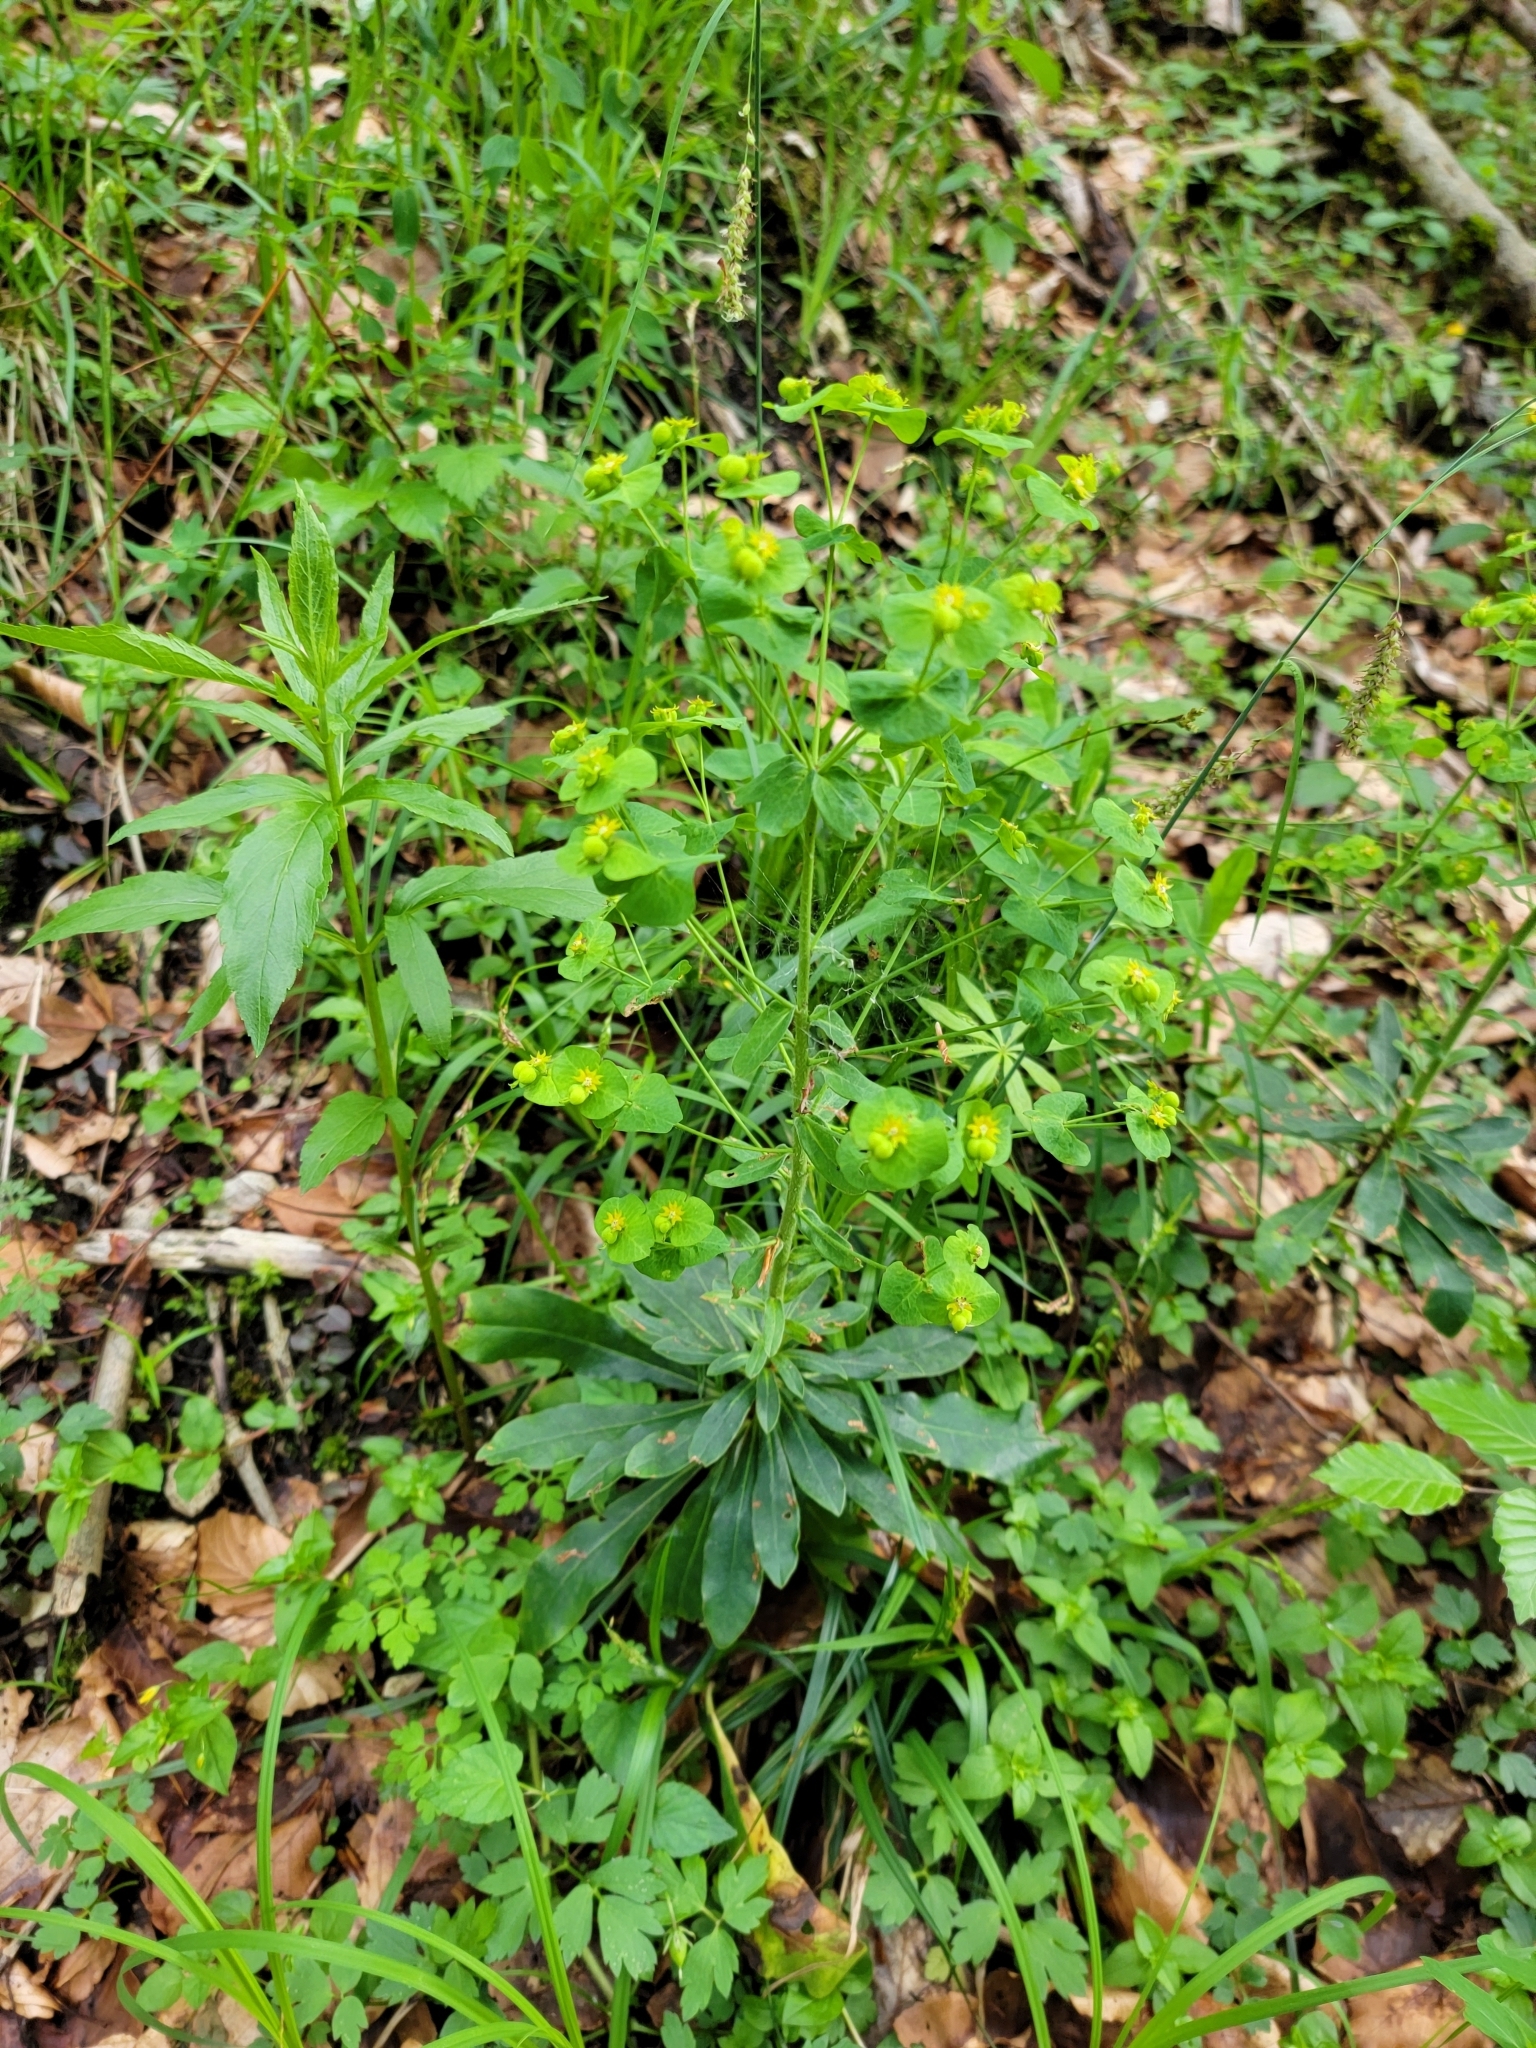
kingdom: Plantae
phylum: Tracheophyta
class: Magnoliopsida
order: Malpighiales
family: Euphorbiaceae
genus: Euphorbia
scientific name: Euphorbia amygdaloides
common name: Wood spurge
